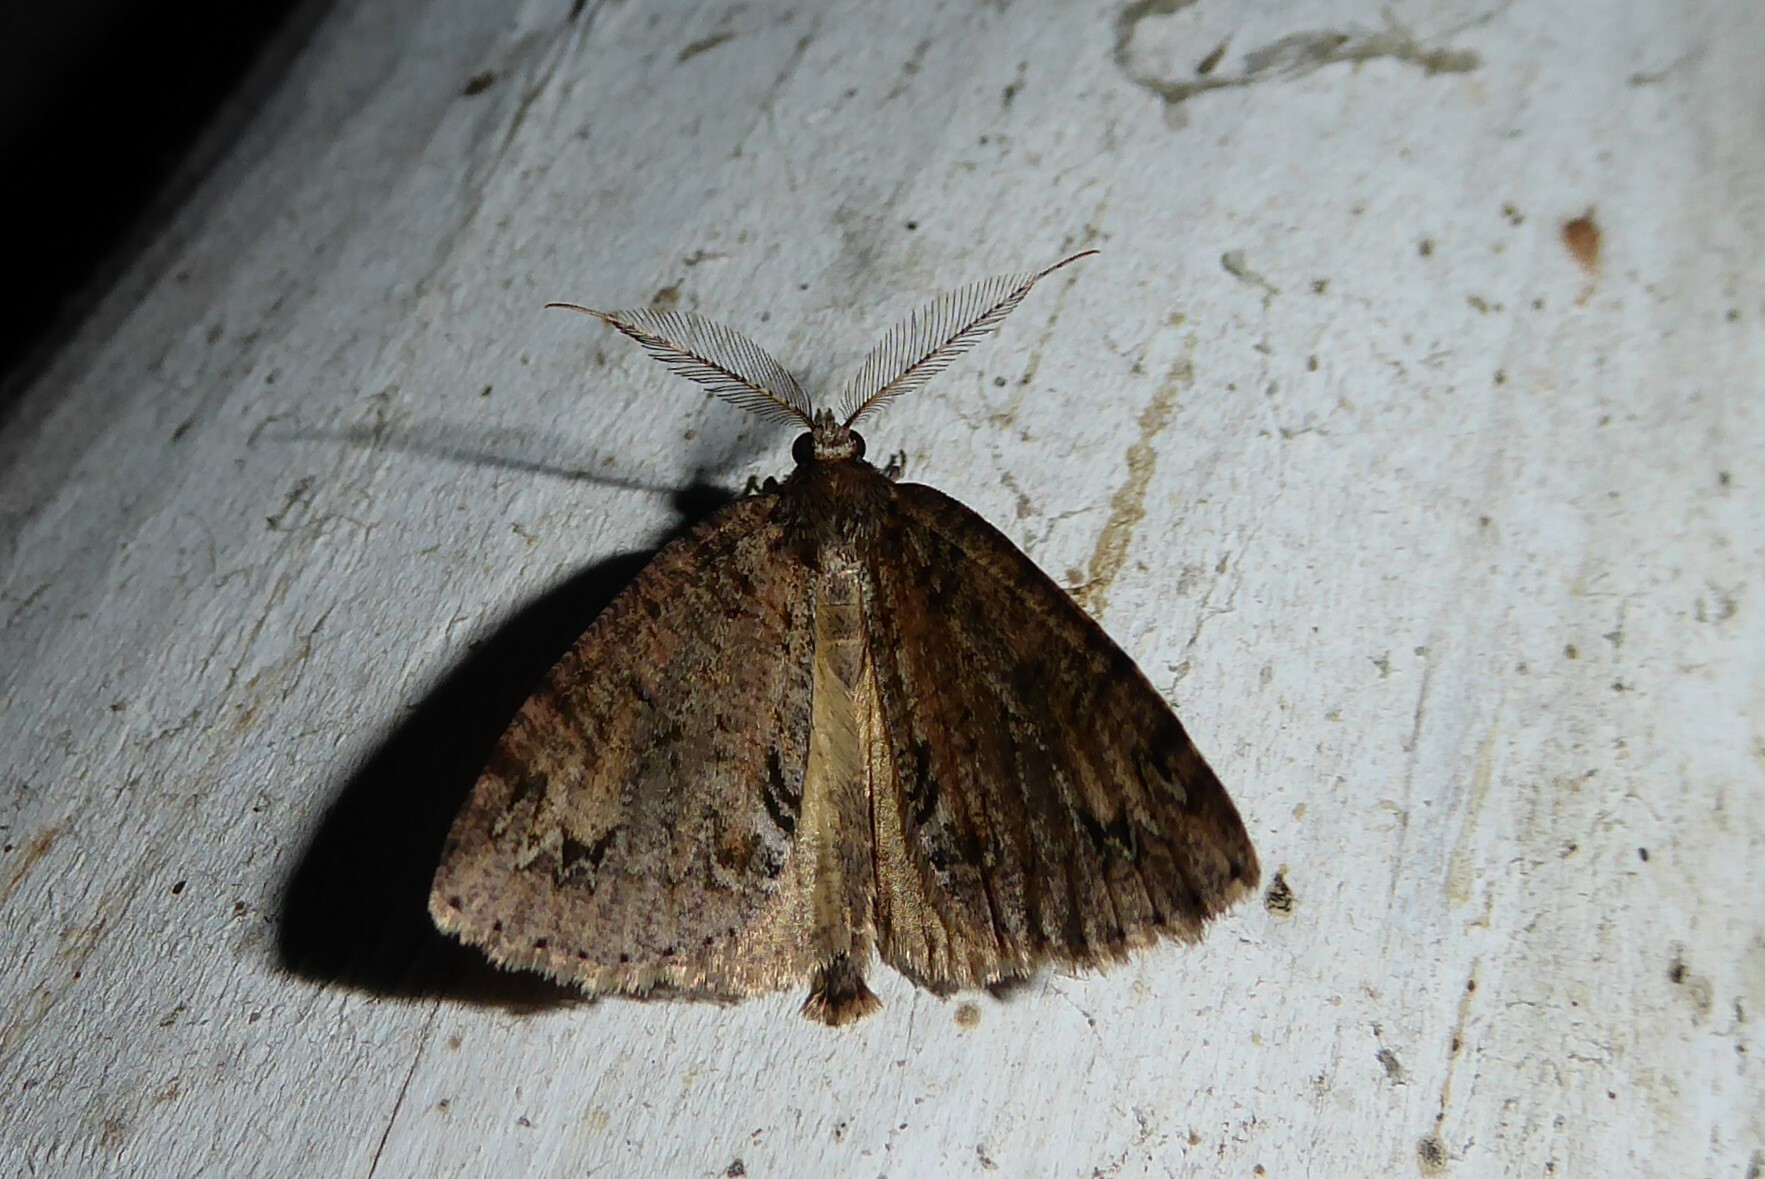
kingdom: Animalia
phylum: Arthropoda
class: Insecta
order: Lepidoptera
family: Geometridae
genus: Pseudocoremia
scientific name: Pseudocoremia suavis
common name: Common forest looper
